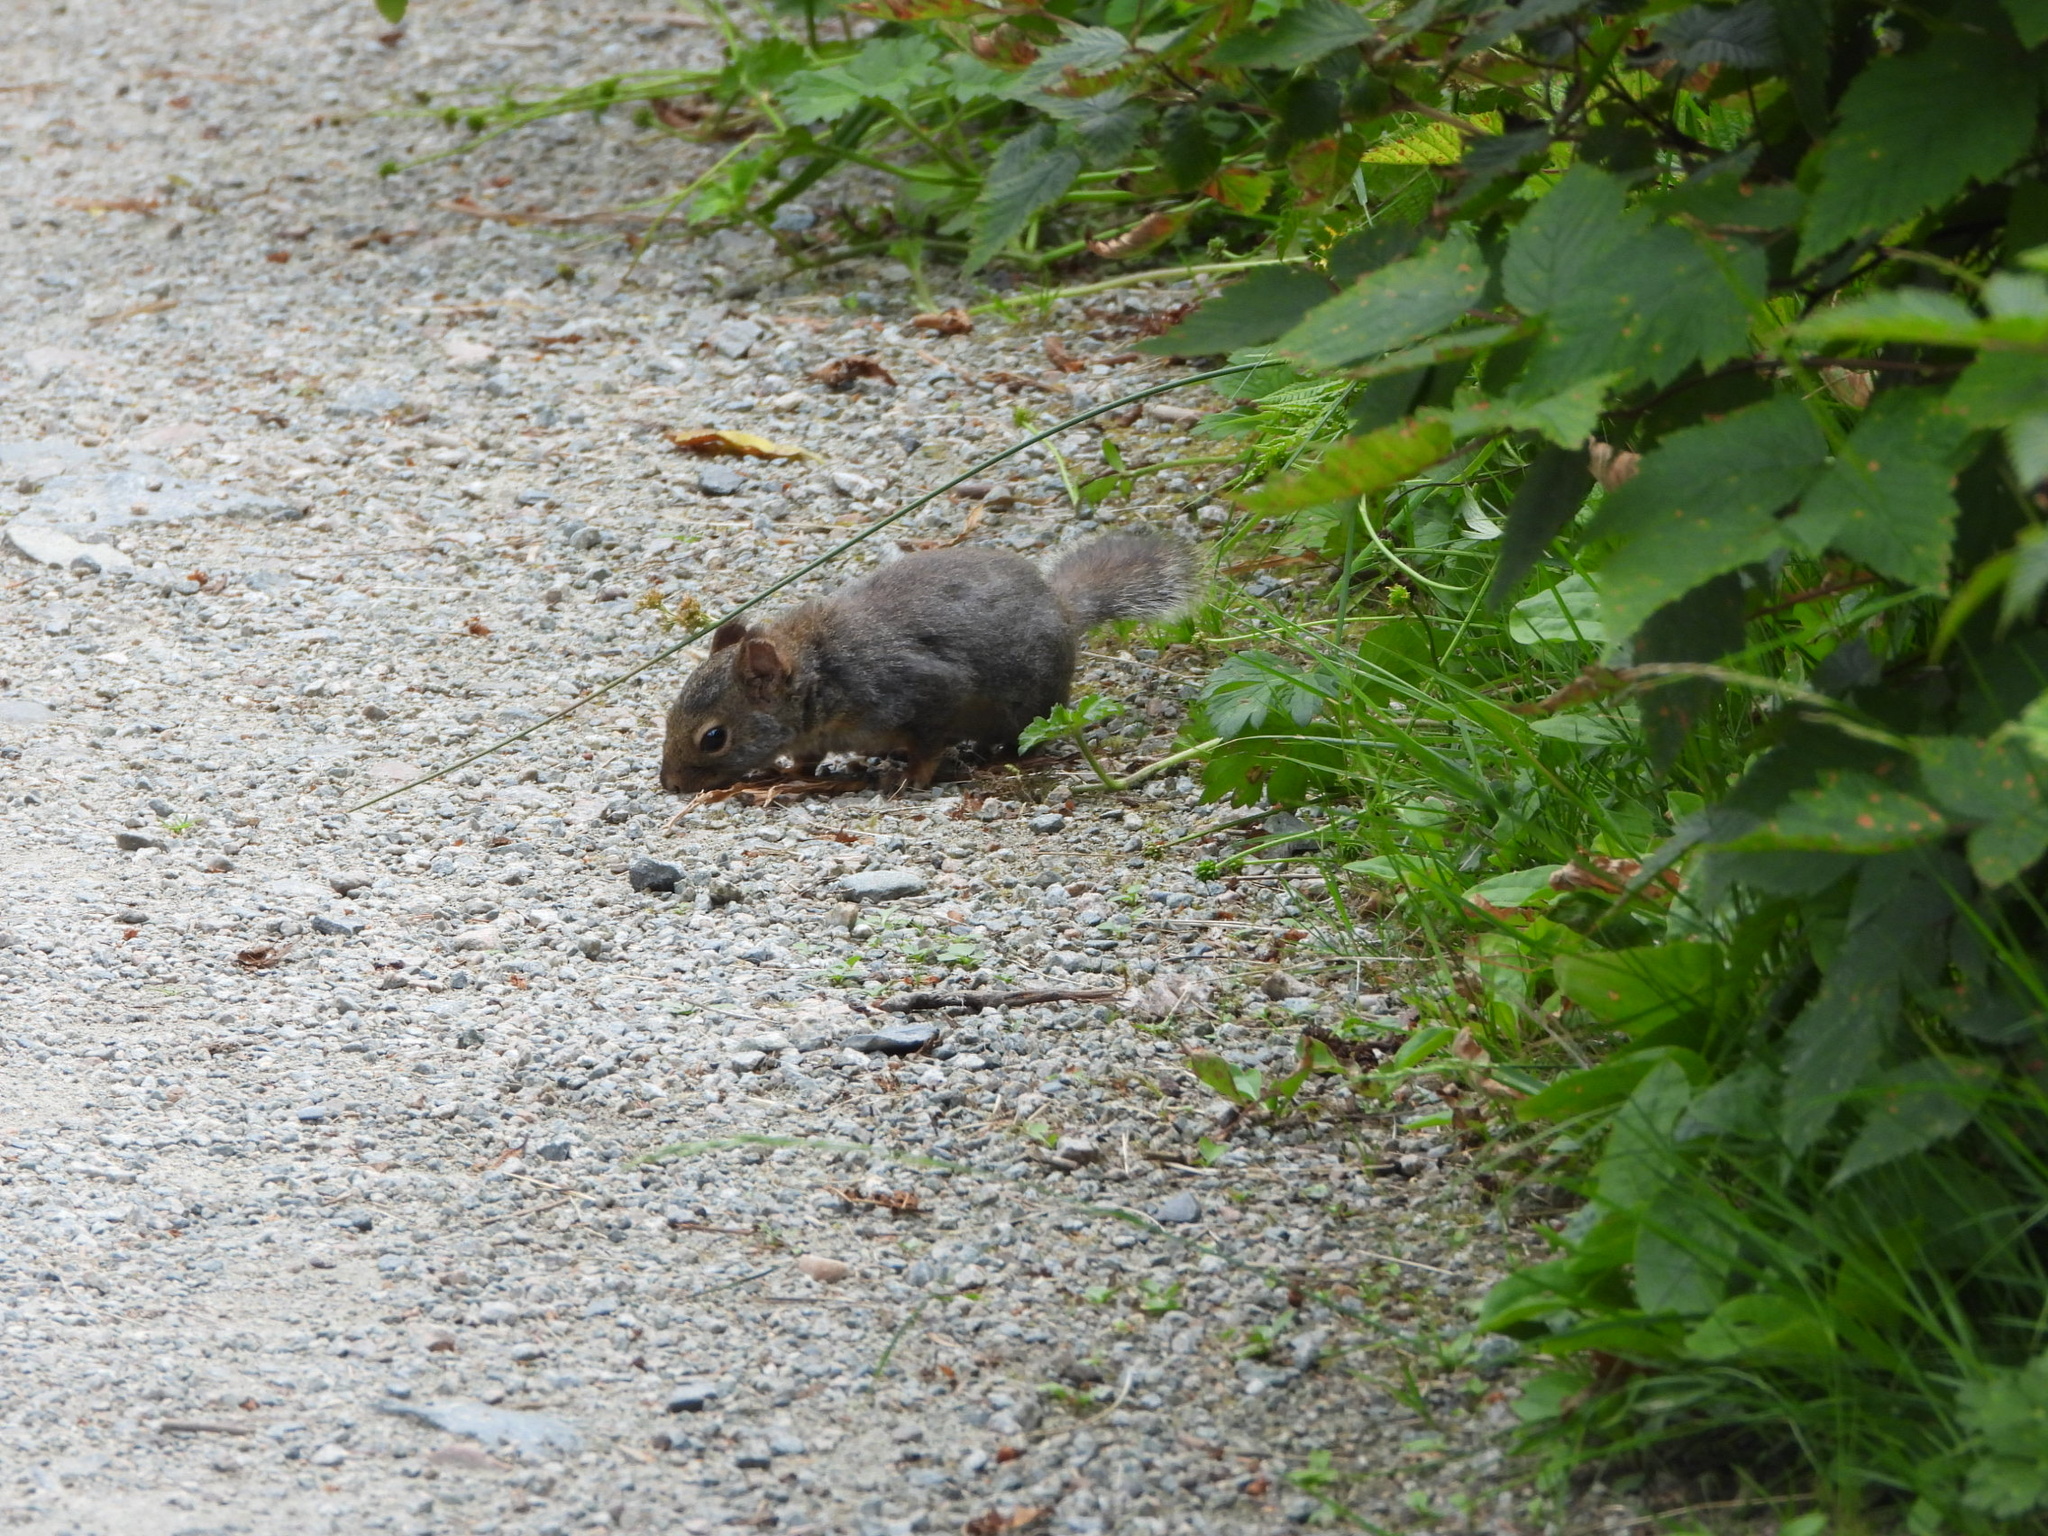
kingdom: Animalia
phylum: Chordata
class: Mammalia
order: Rodentia
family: Sciuridae
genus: Tamiasciurus
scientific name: Tamiasciurus douglasii
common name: Douglas's squirrel
